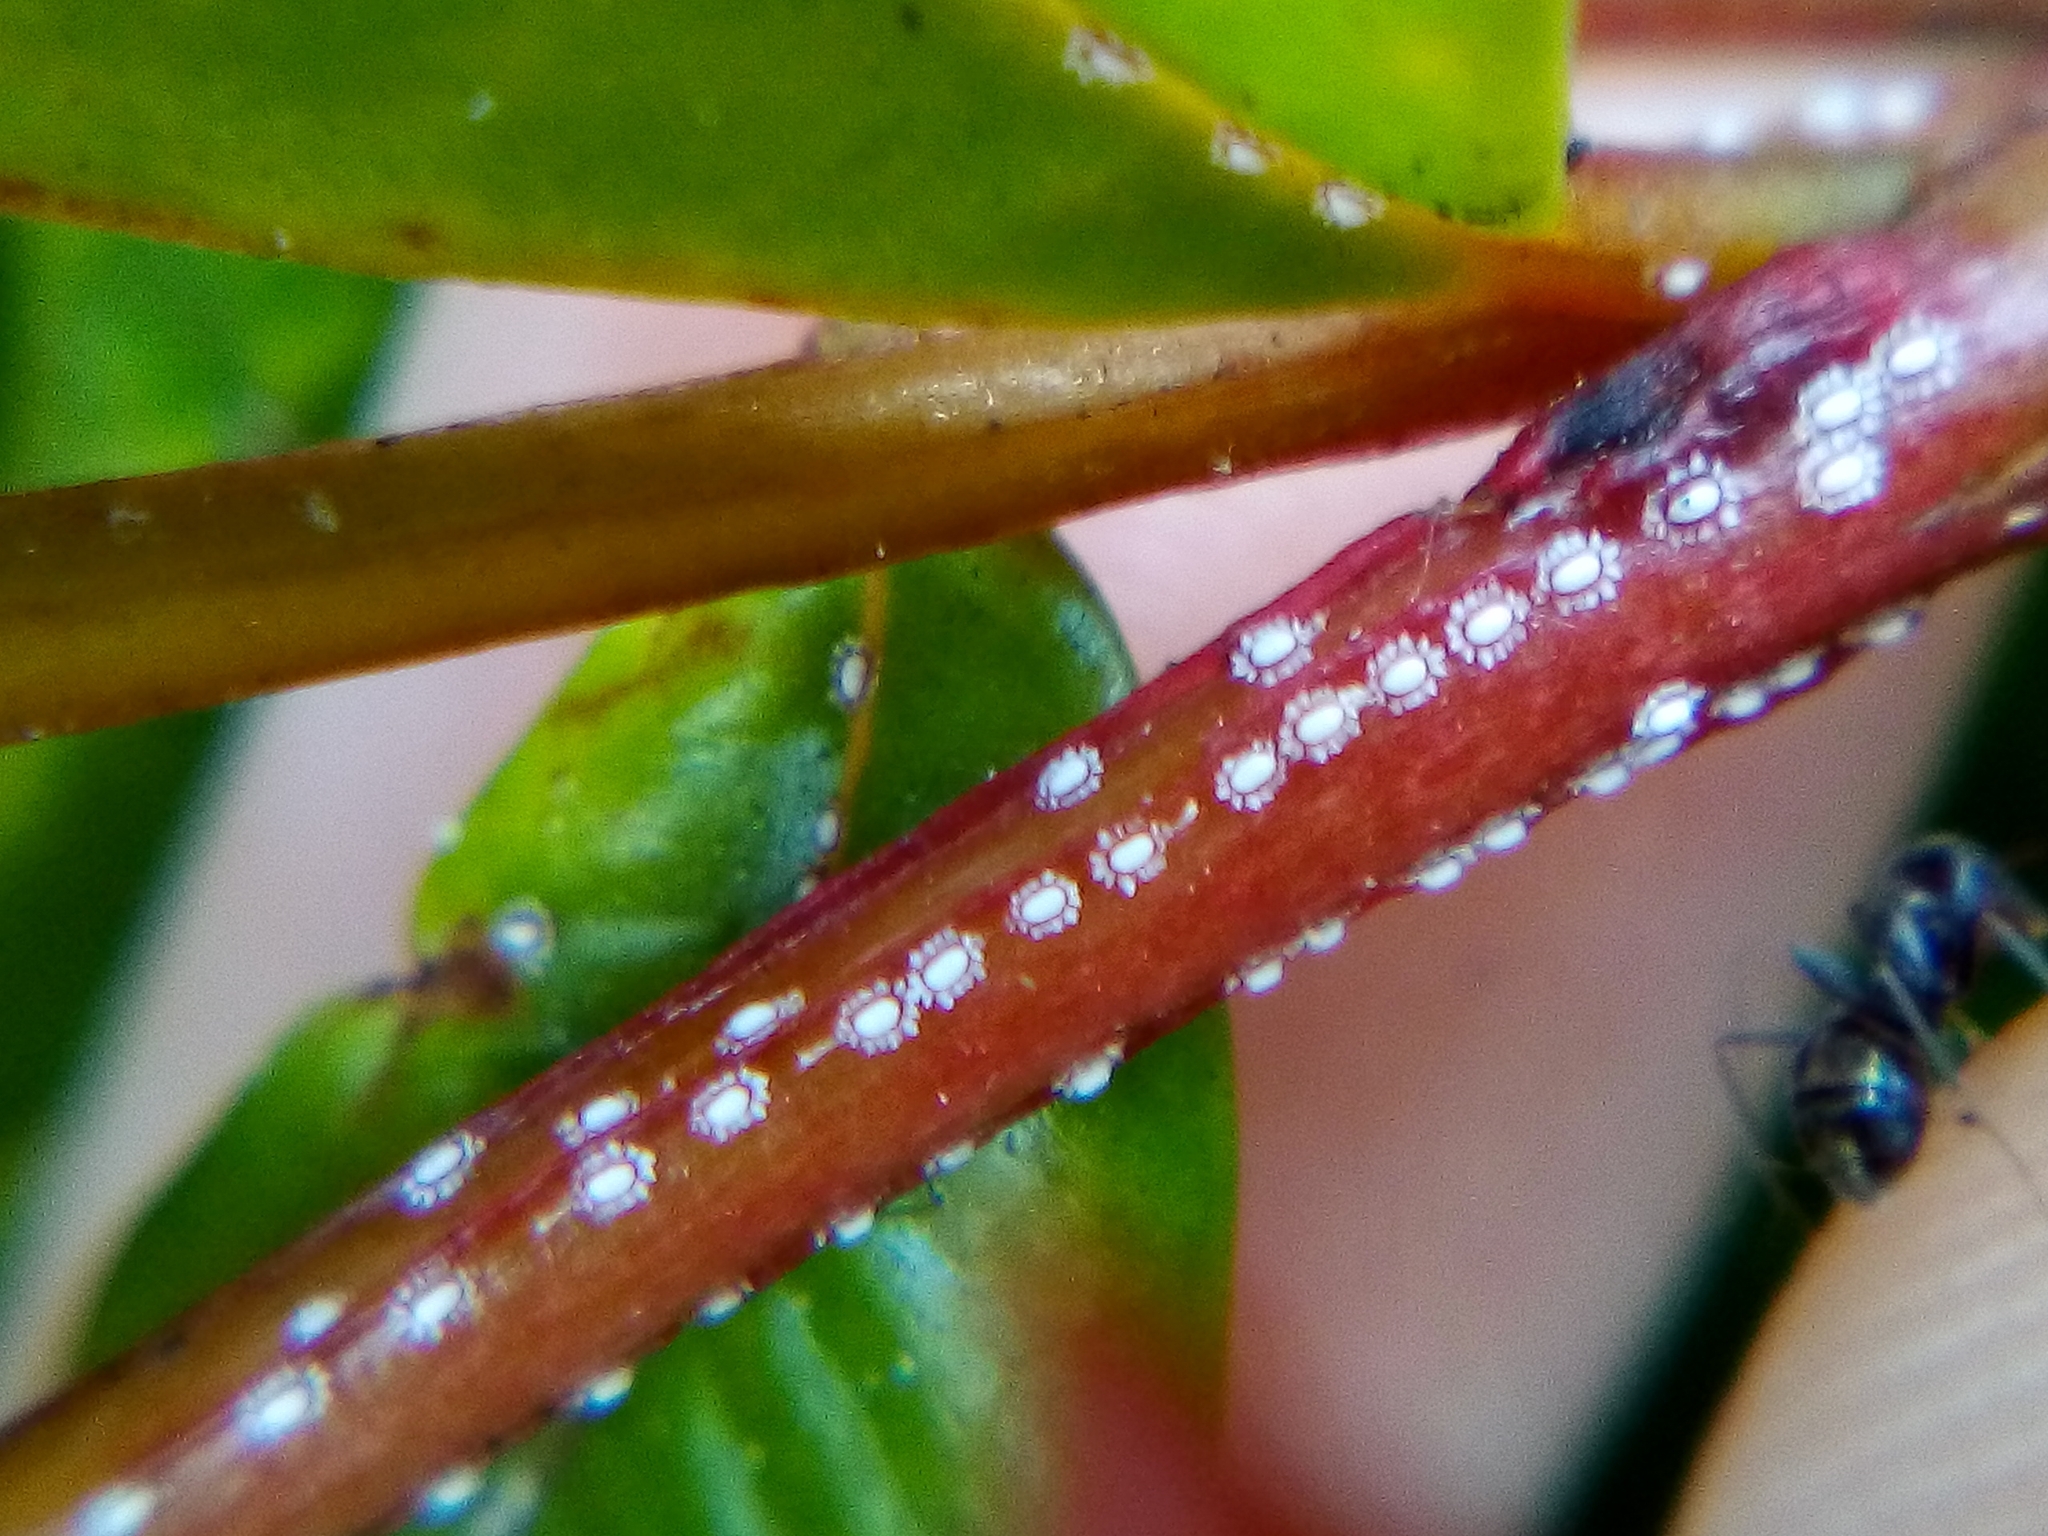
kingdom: Animalia
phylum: Arthropoda
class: Insecta
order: Hemiptera
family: Coccidae
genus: Ceroplastes
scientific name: Ceroplastes sinensis
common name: Hard wax scale
